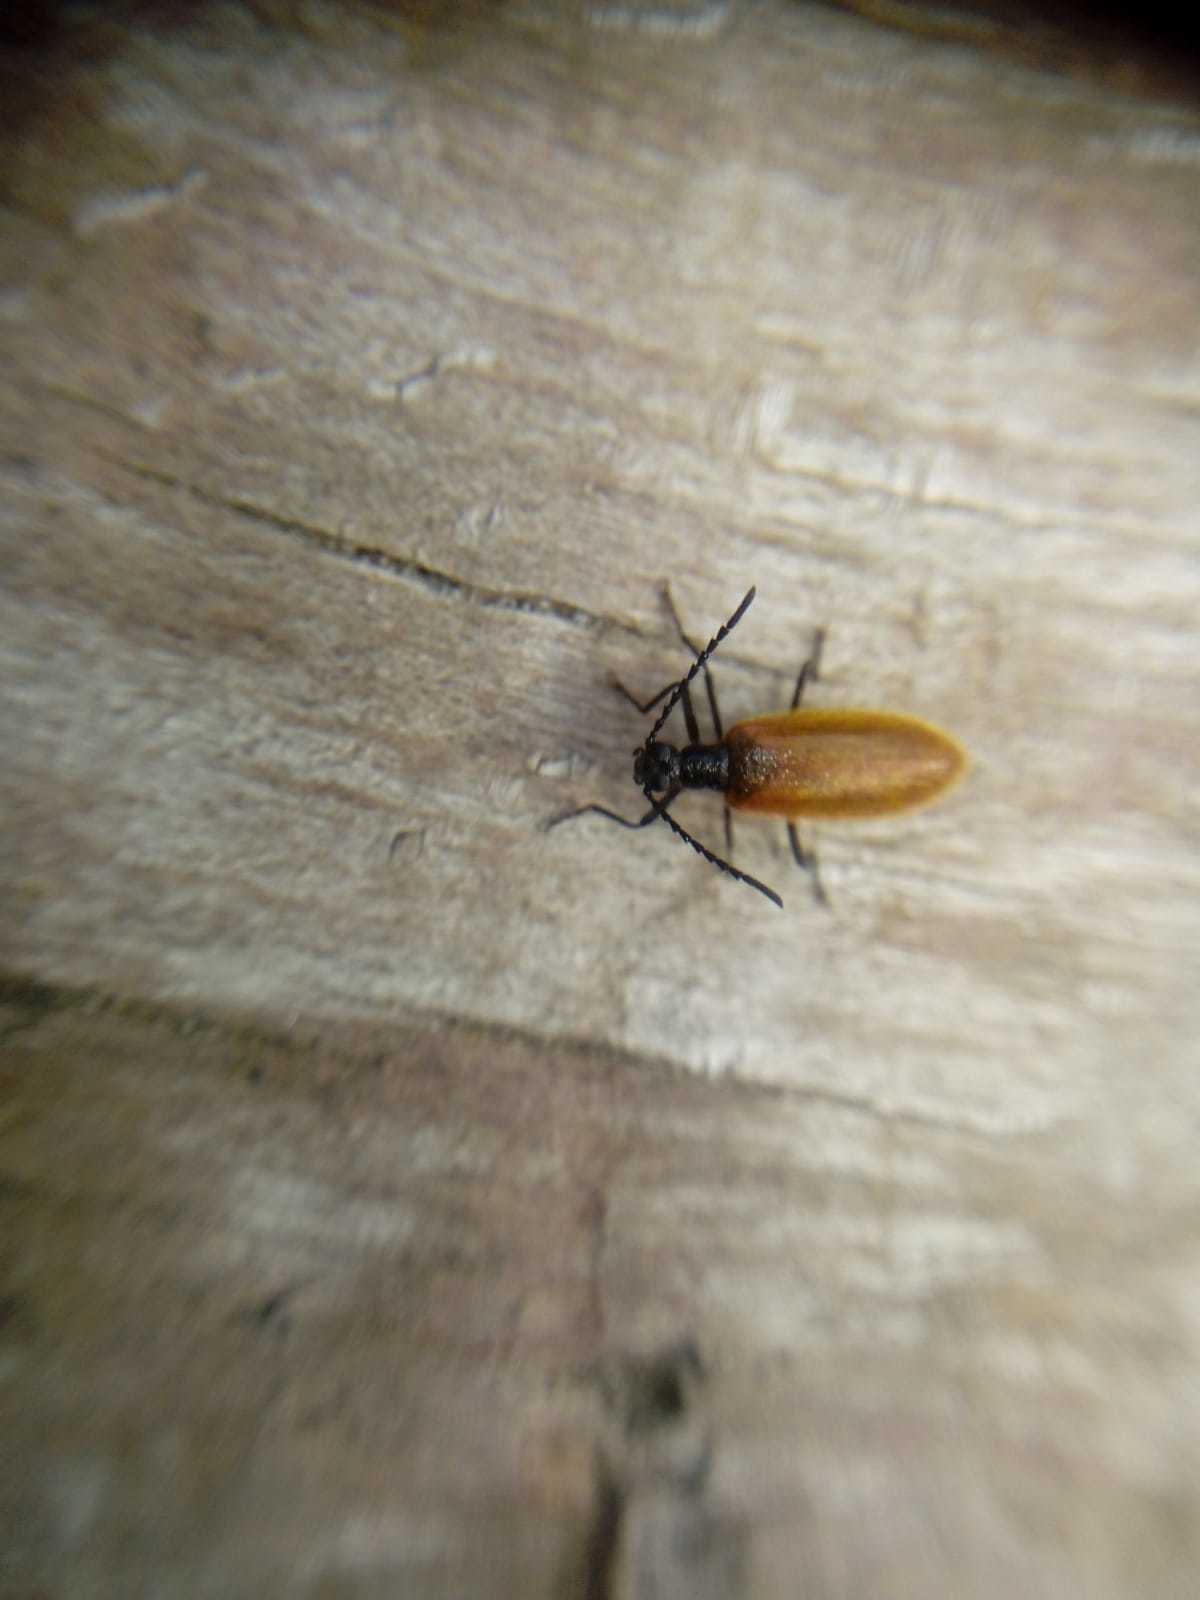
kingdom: Animalia
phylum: Arthropoda
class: Insecta
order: Coleoptera
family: Tenebrionidae
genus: Lagria
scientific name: Lagria hirta
